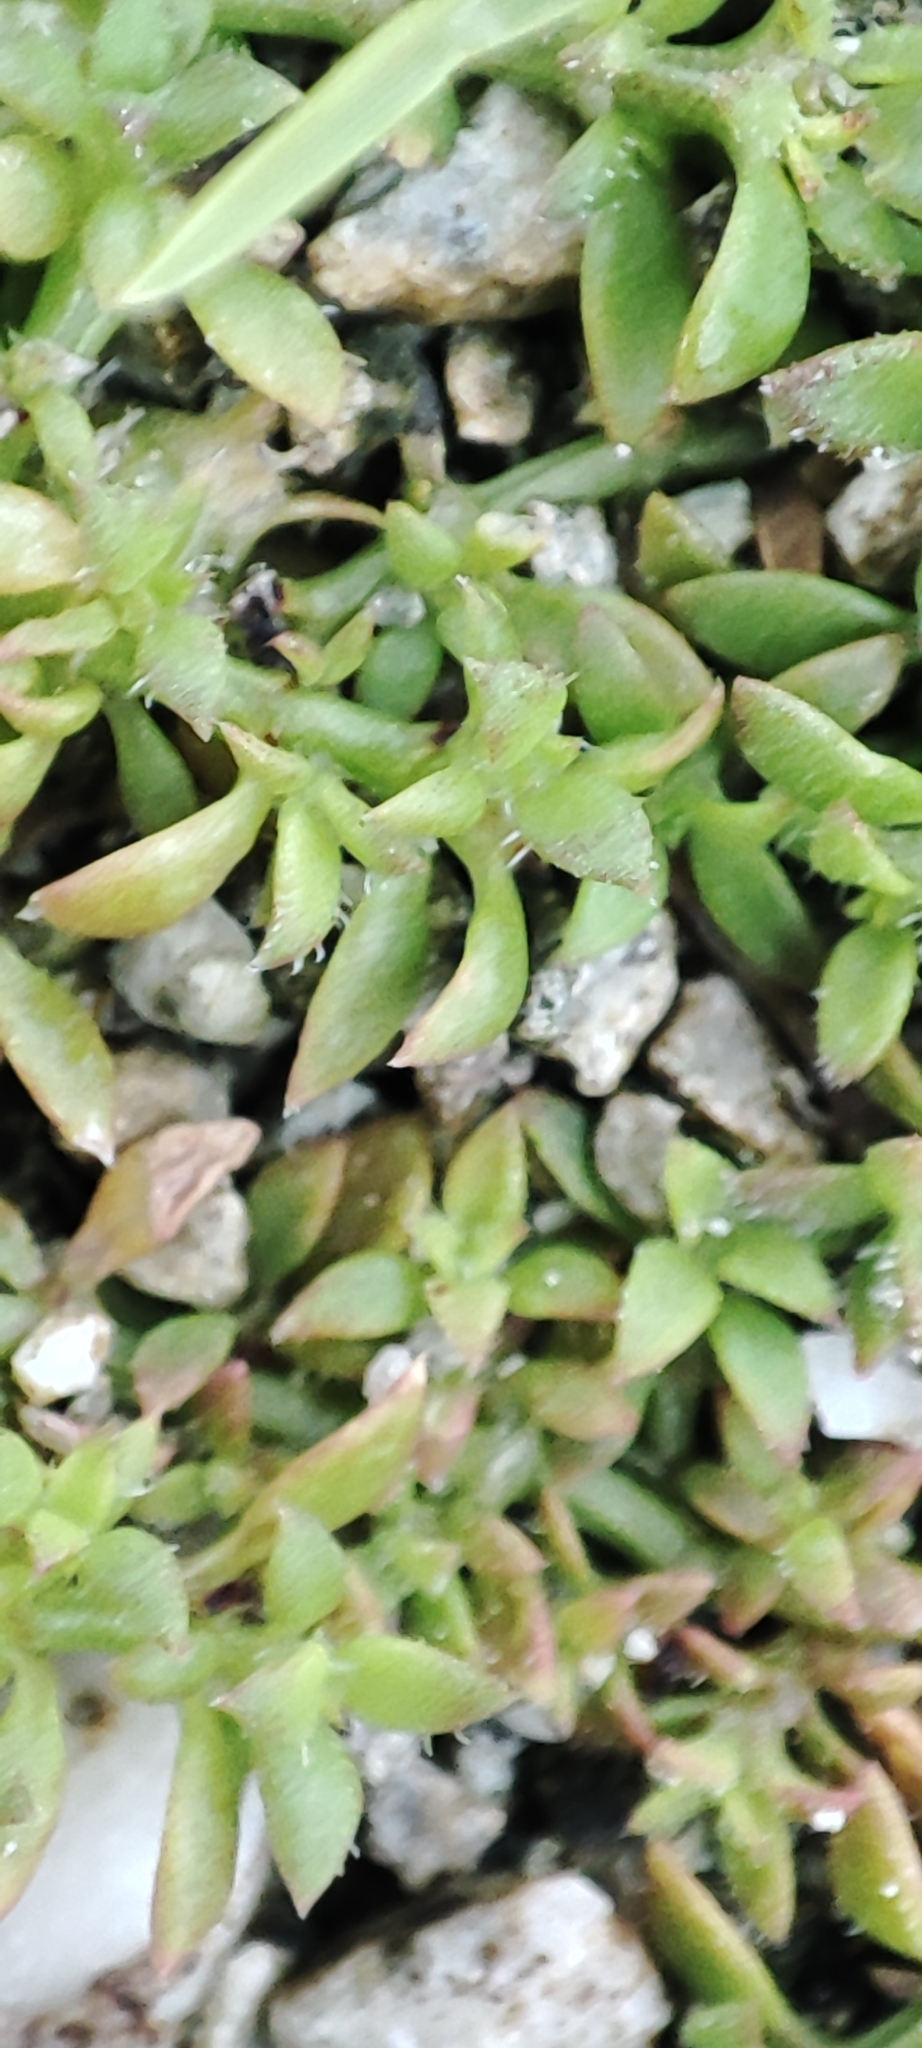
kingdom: Plantae
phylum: Tracheophyta
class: Magnoliopsida
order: Gentianales
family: Rubiaceae
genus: Dentella
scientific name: Dentella repens
